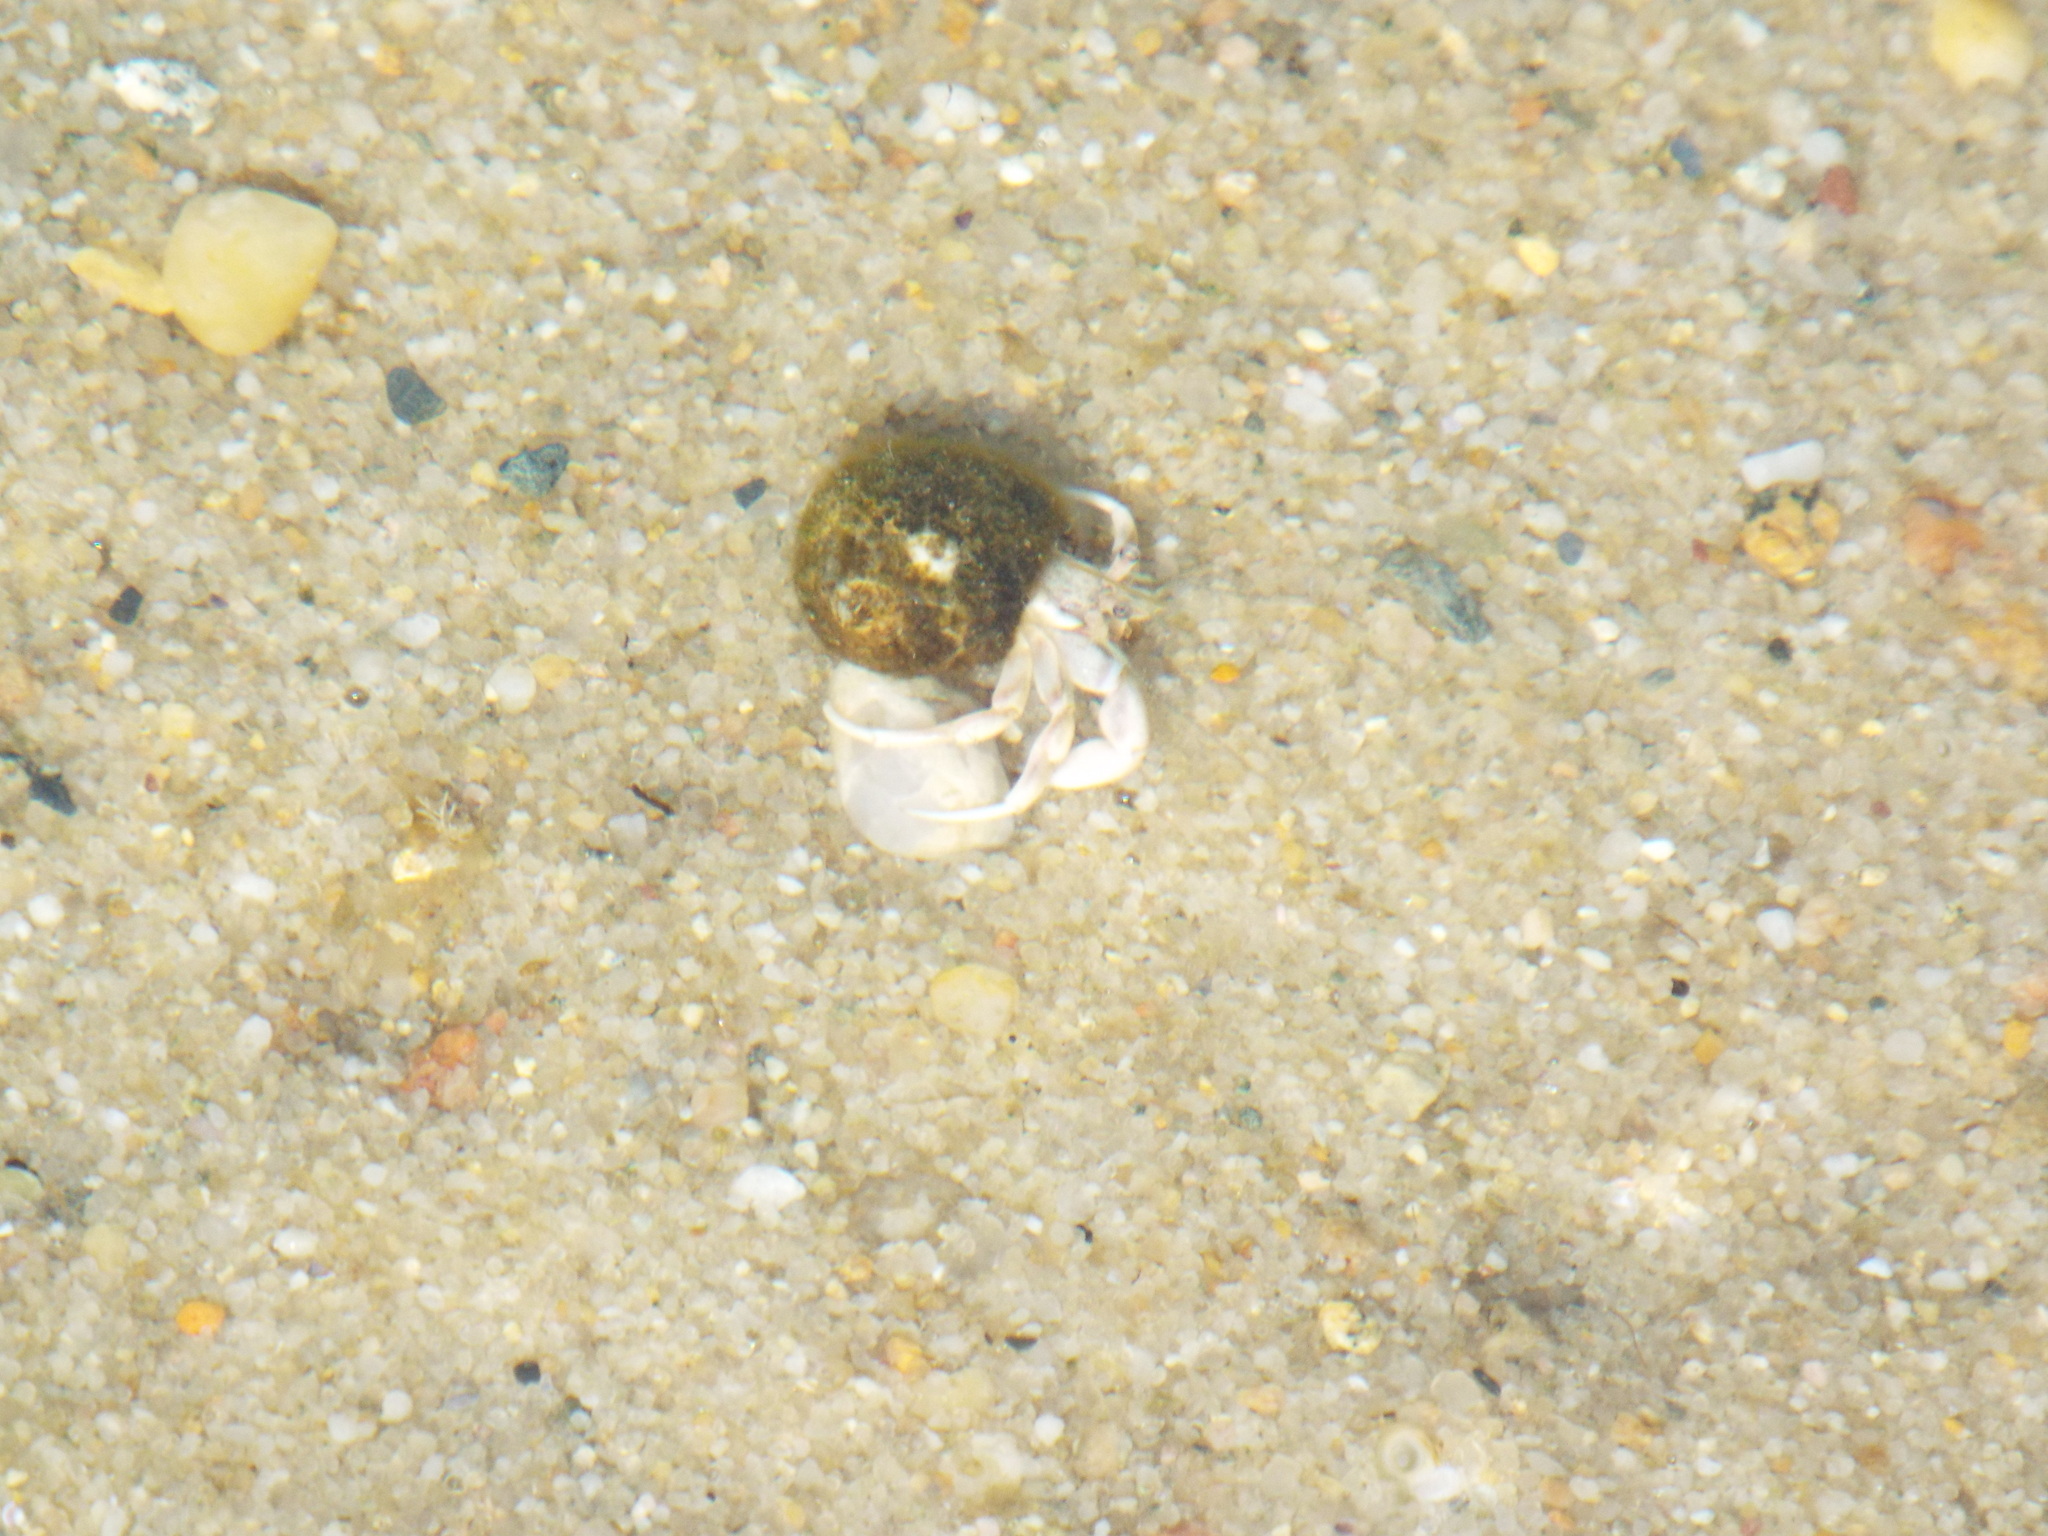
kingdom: Animalia
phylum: Arthropoda
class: Malacostraca
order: Decapoda
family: Paguridae
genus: Pagurus
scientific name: Pagurus longicarpus
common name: Long-armed hermit crab
